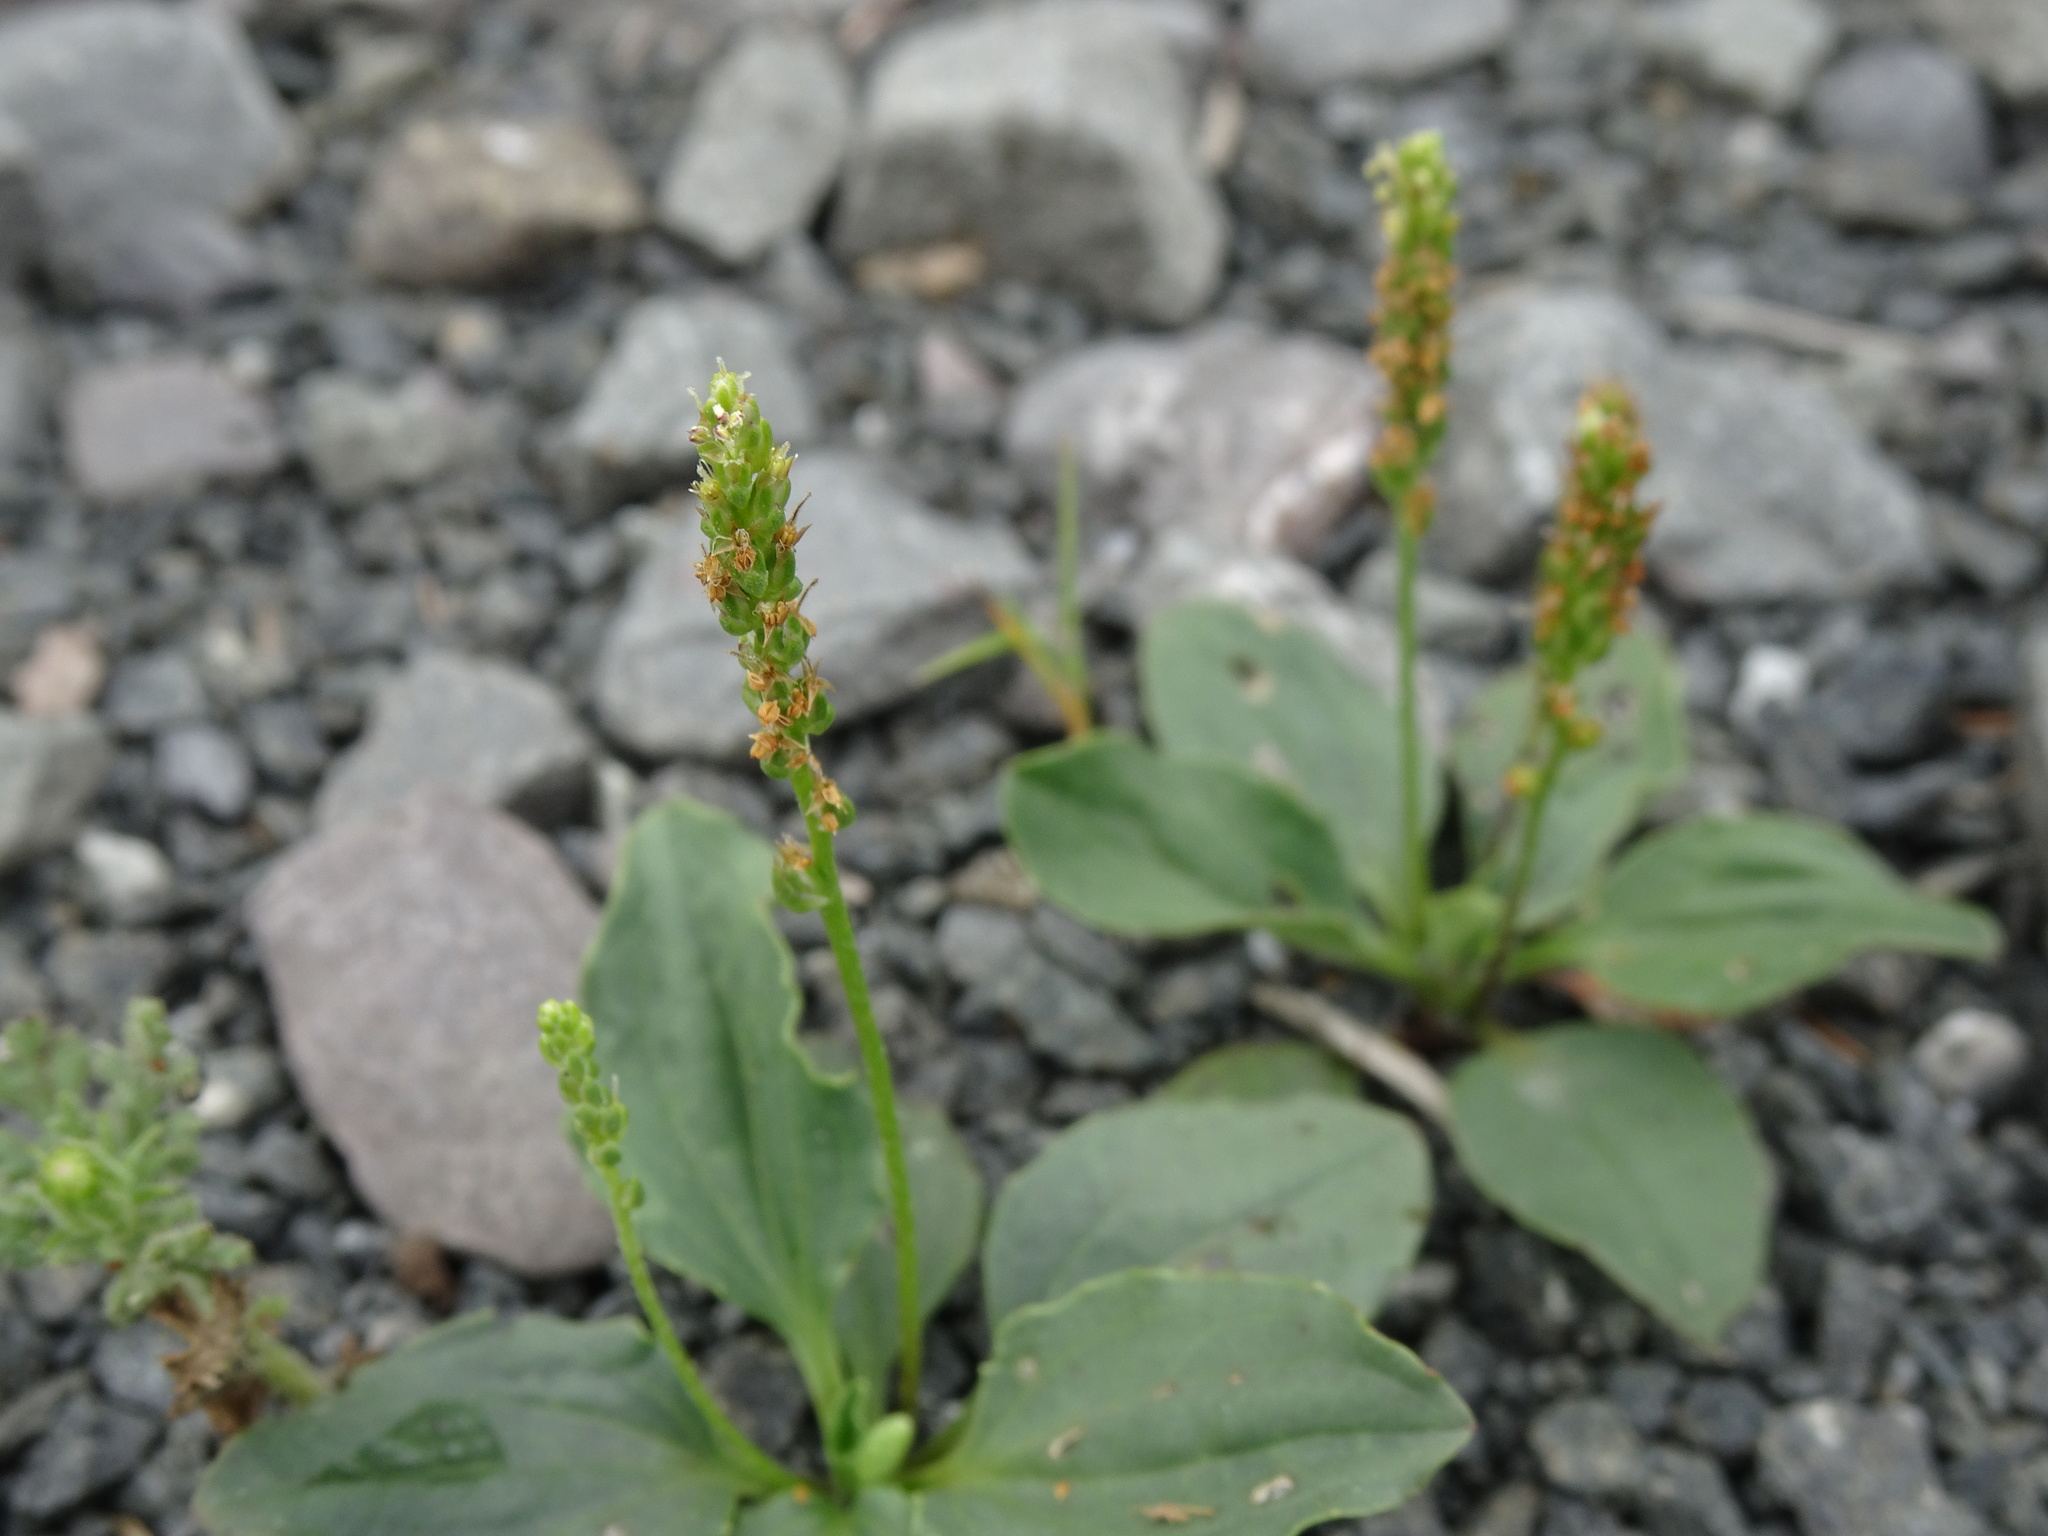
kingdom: Plantae
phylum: Tracheophyta
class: Magnoliopsida
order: Lamiales
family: Plantaginaceae
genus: Plantago
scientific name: Plantago major
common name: Common plantain
